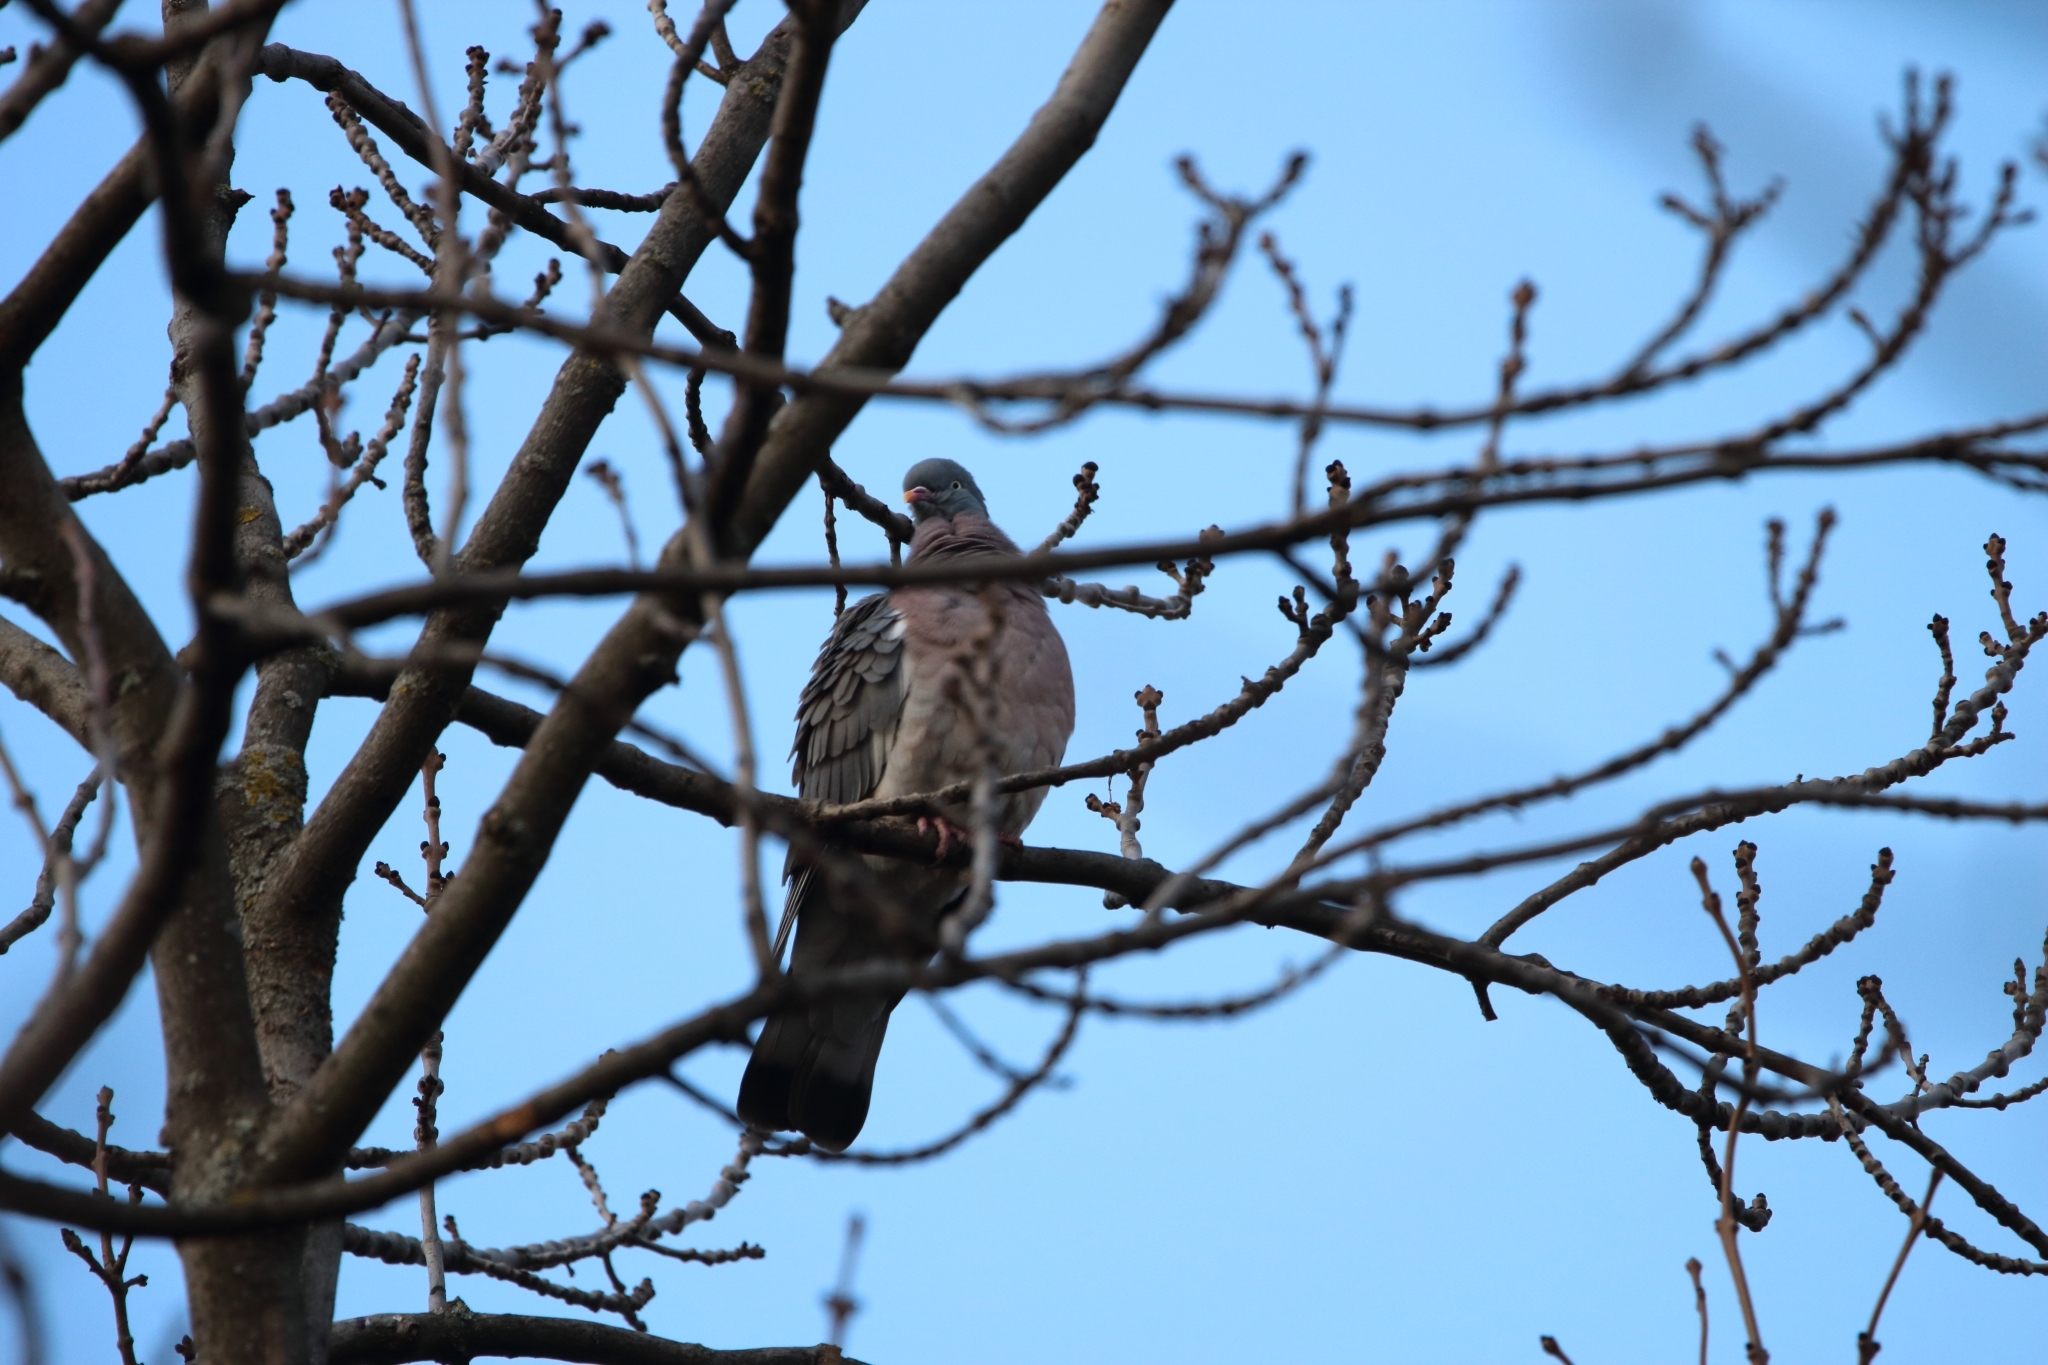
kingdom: Animalia
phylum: Chordata
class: Aves
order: Columbiformes
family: Columbidae
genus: Columba
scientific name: Columba palumbus
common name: Common wood pigeon
